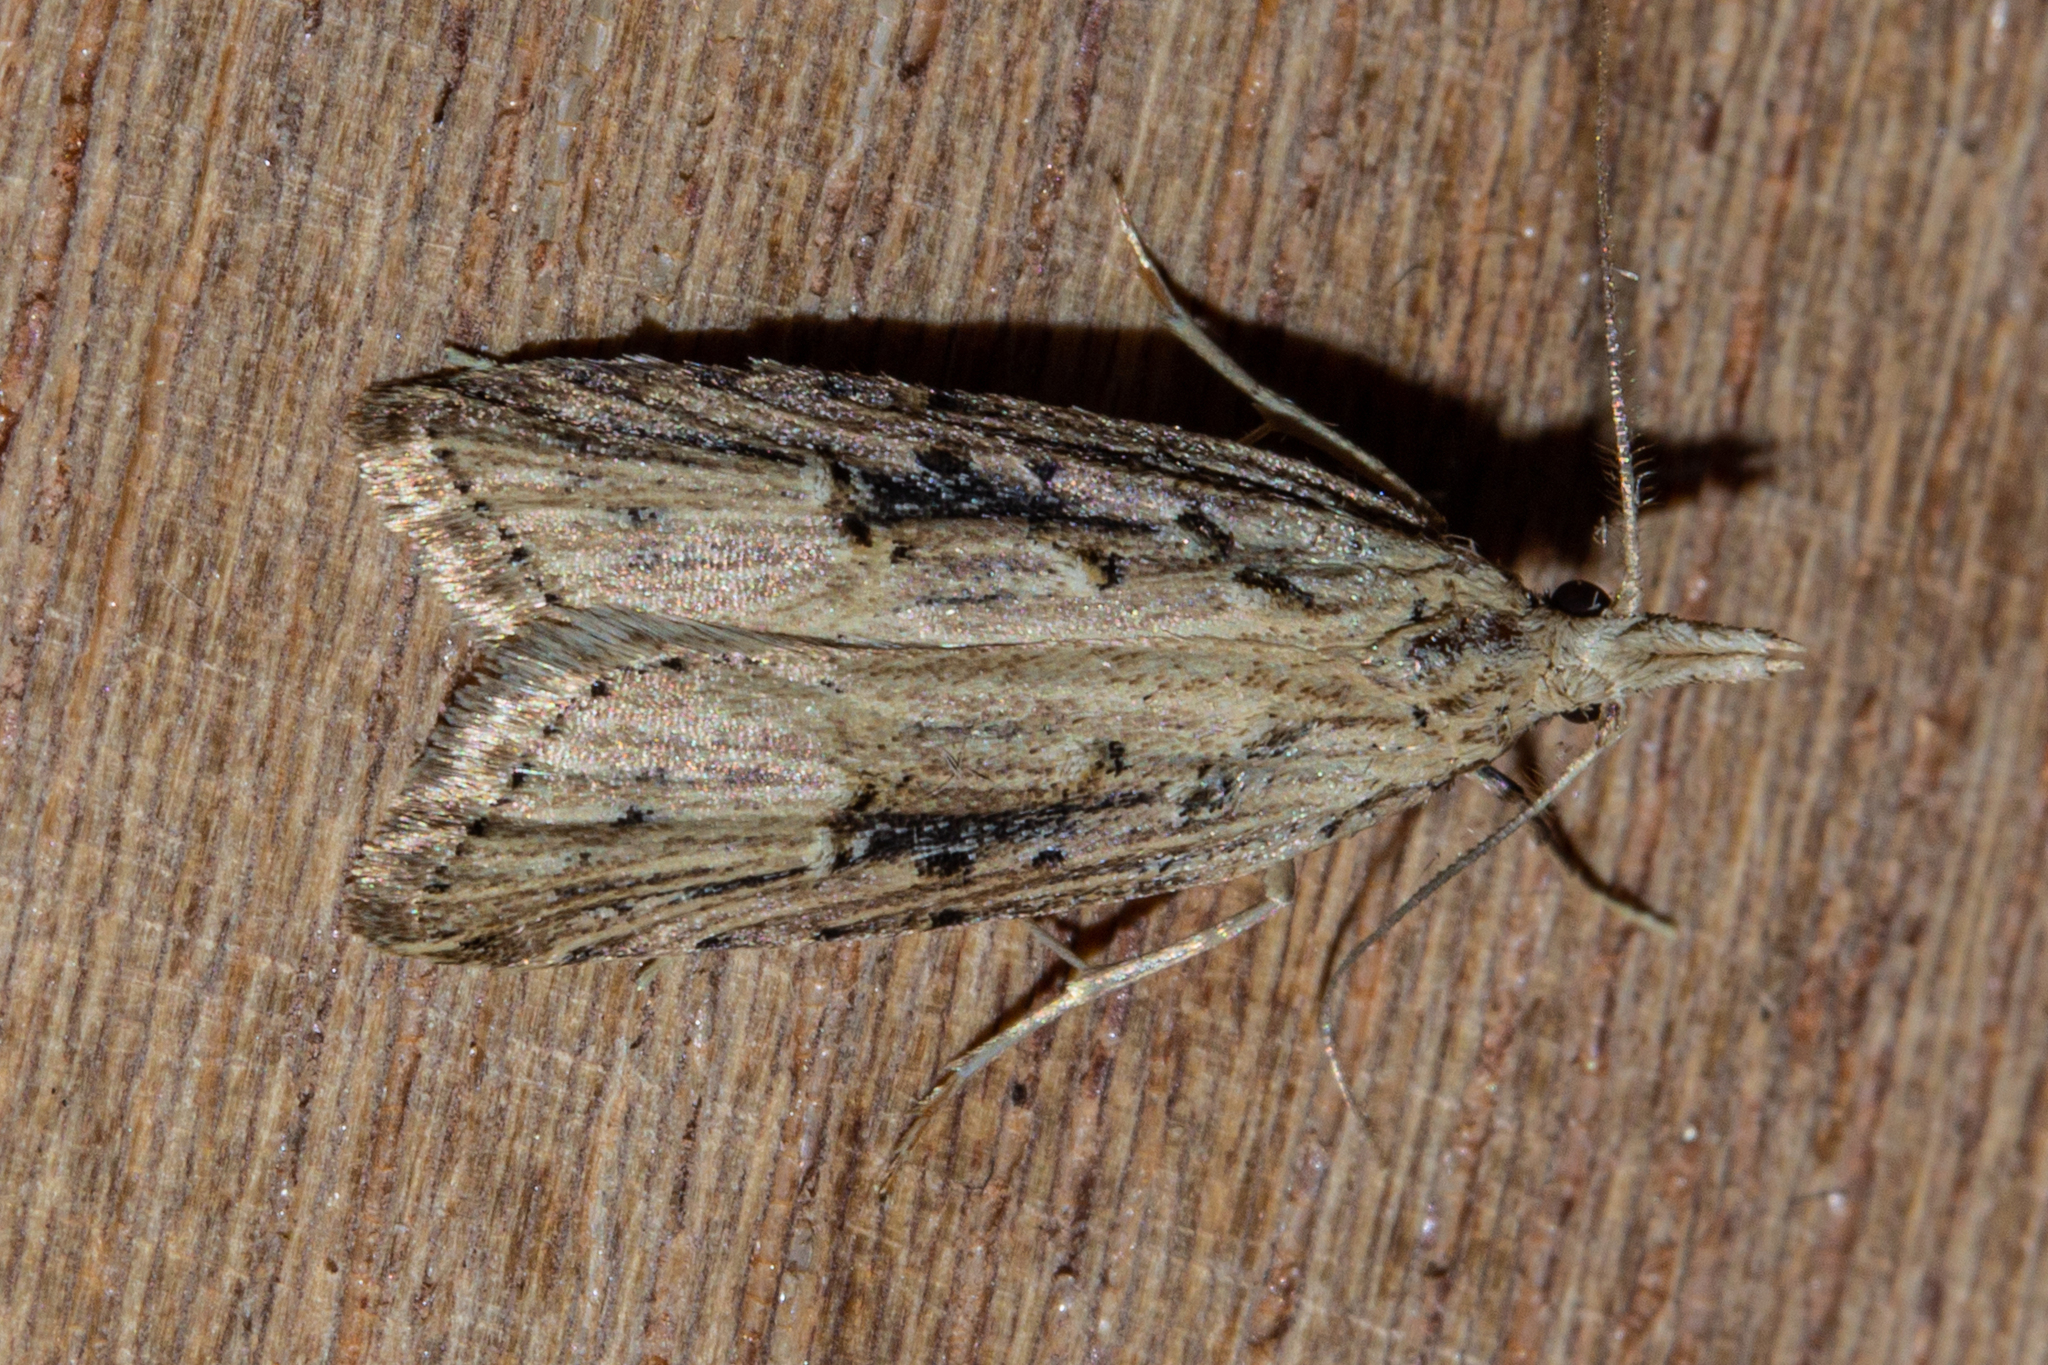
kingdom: Animalia
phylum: Arthropoda
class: Insecta
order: Lepidoptera
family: Carposinidae
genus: Carposina
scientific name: Carposina Heterocrossa exochana
